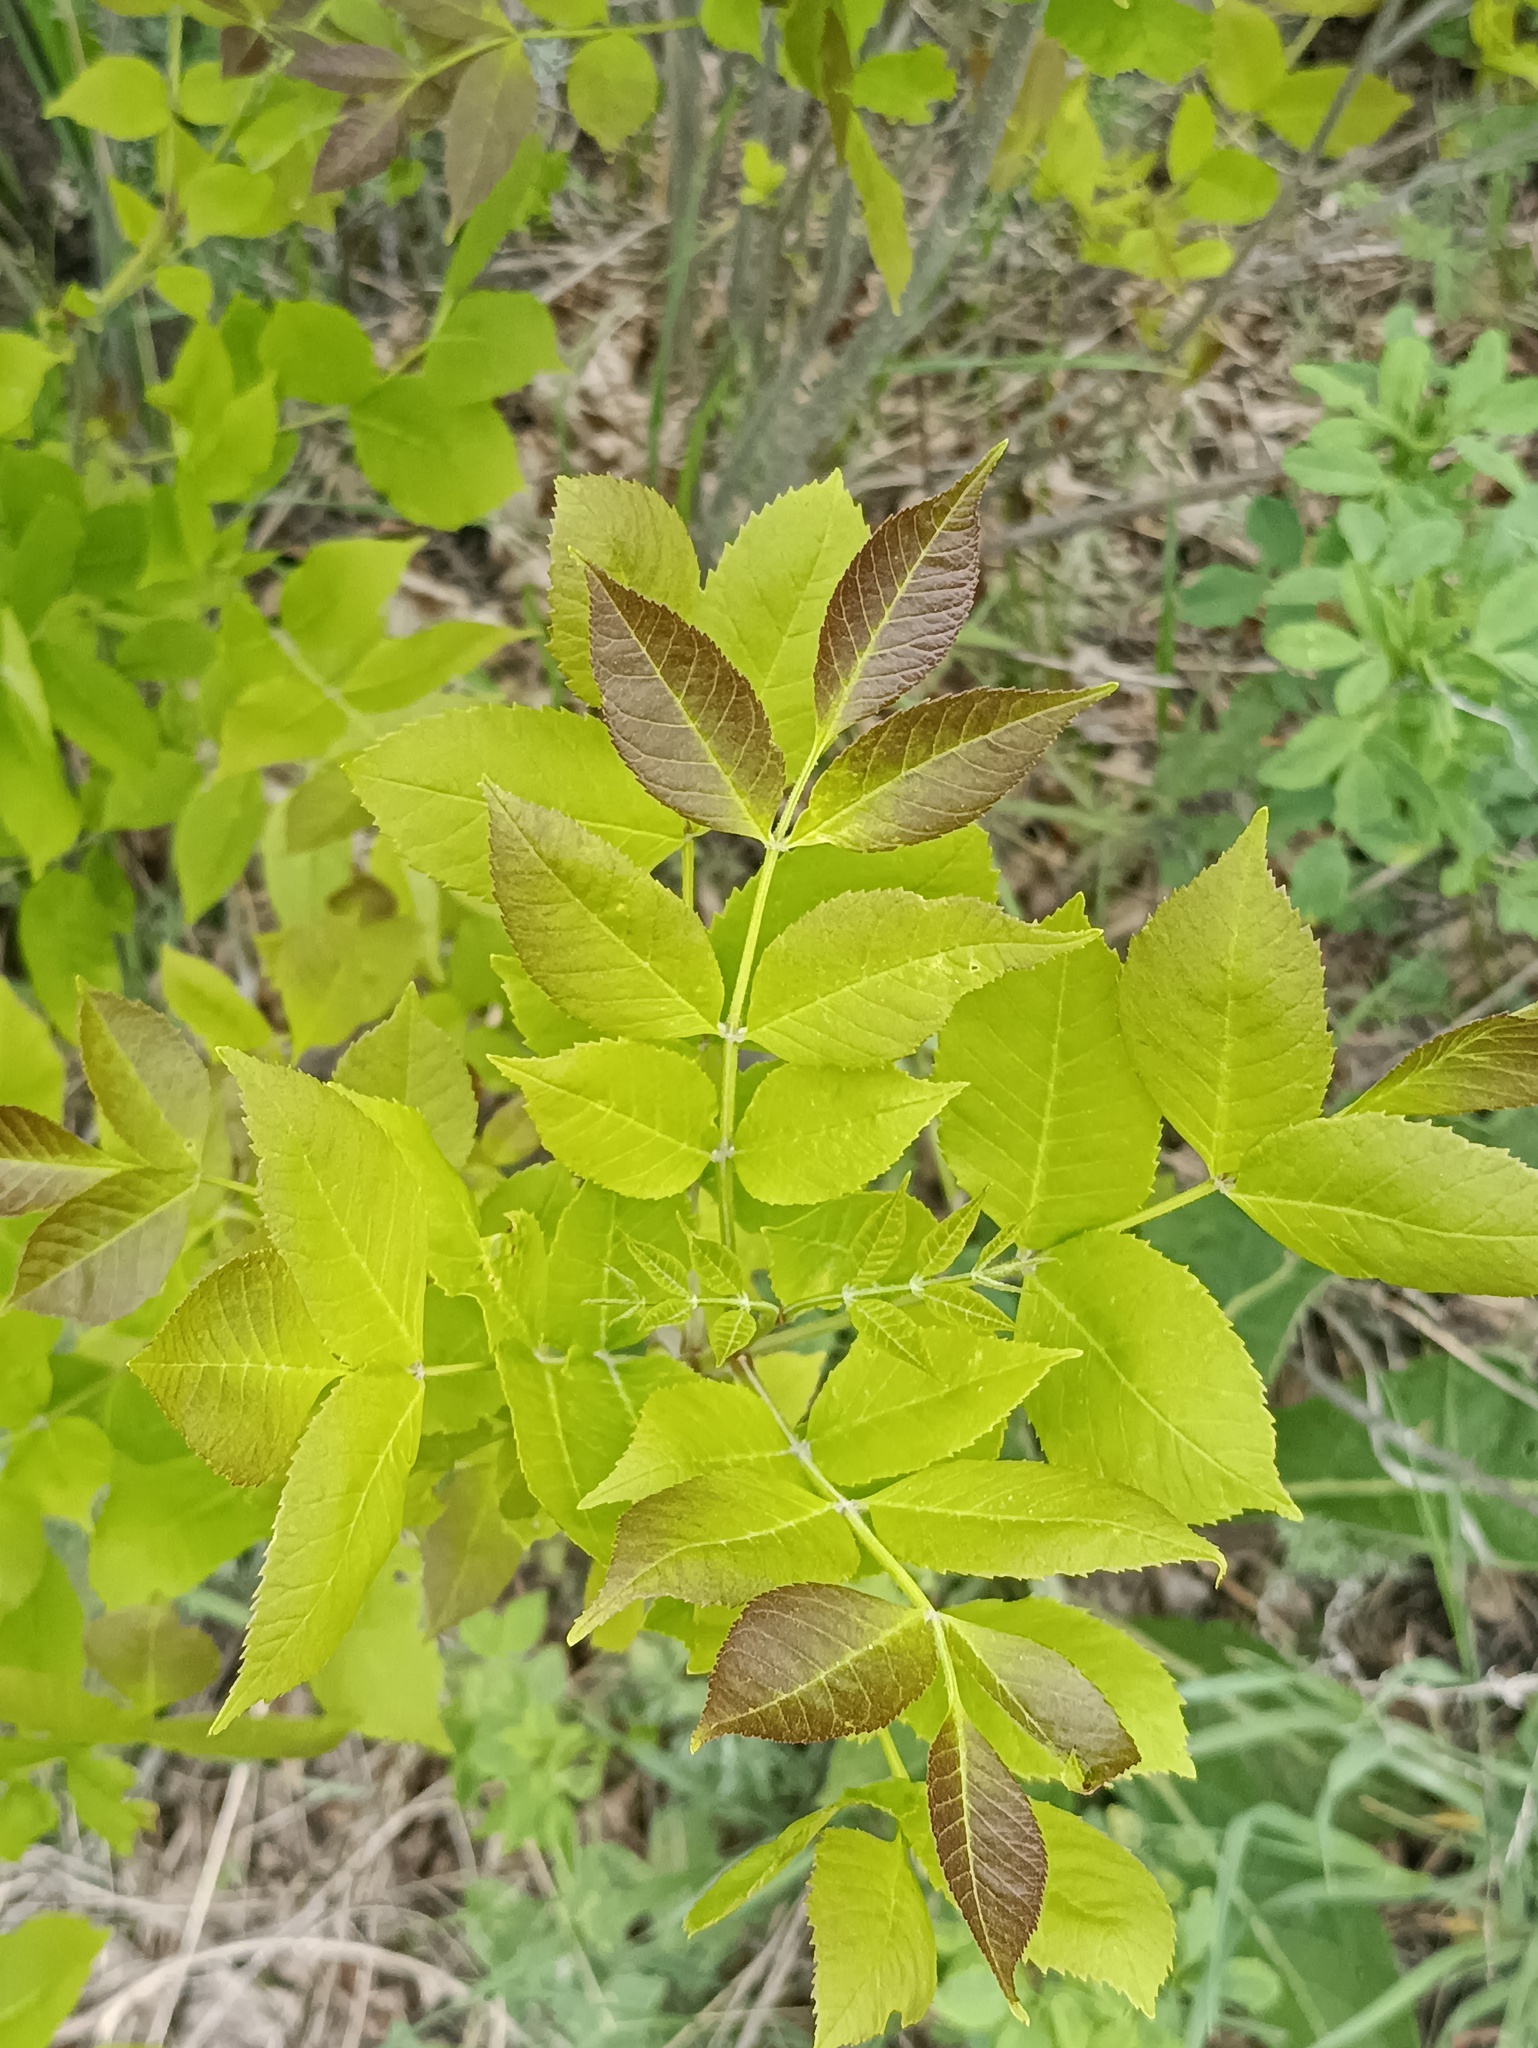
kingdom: Plantae
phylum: Tracheophyta
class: Magnoliopsida
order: Lamiales
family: Oleaceae
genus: Fraxinus
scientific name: Fraxinus pennsylvanica
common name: Green ash
